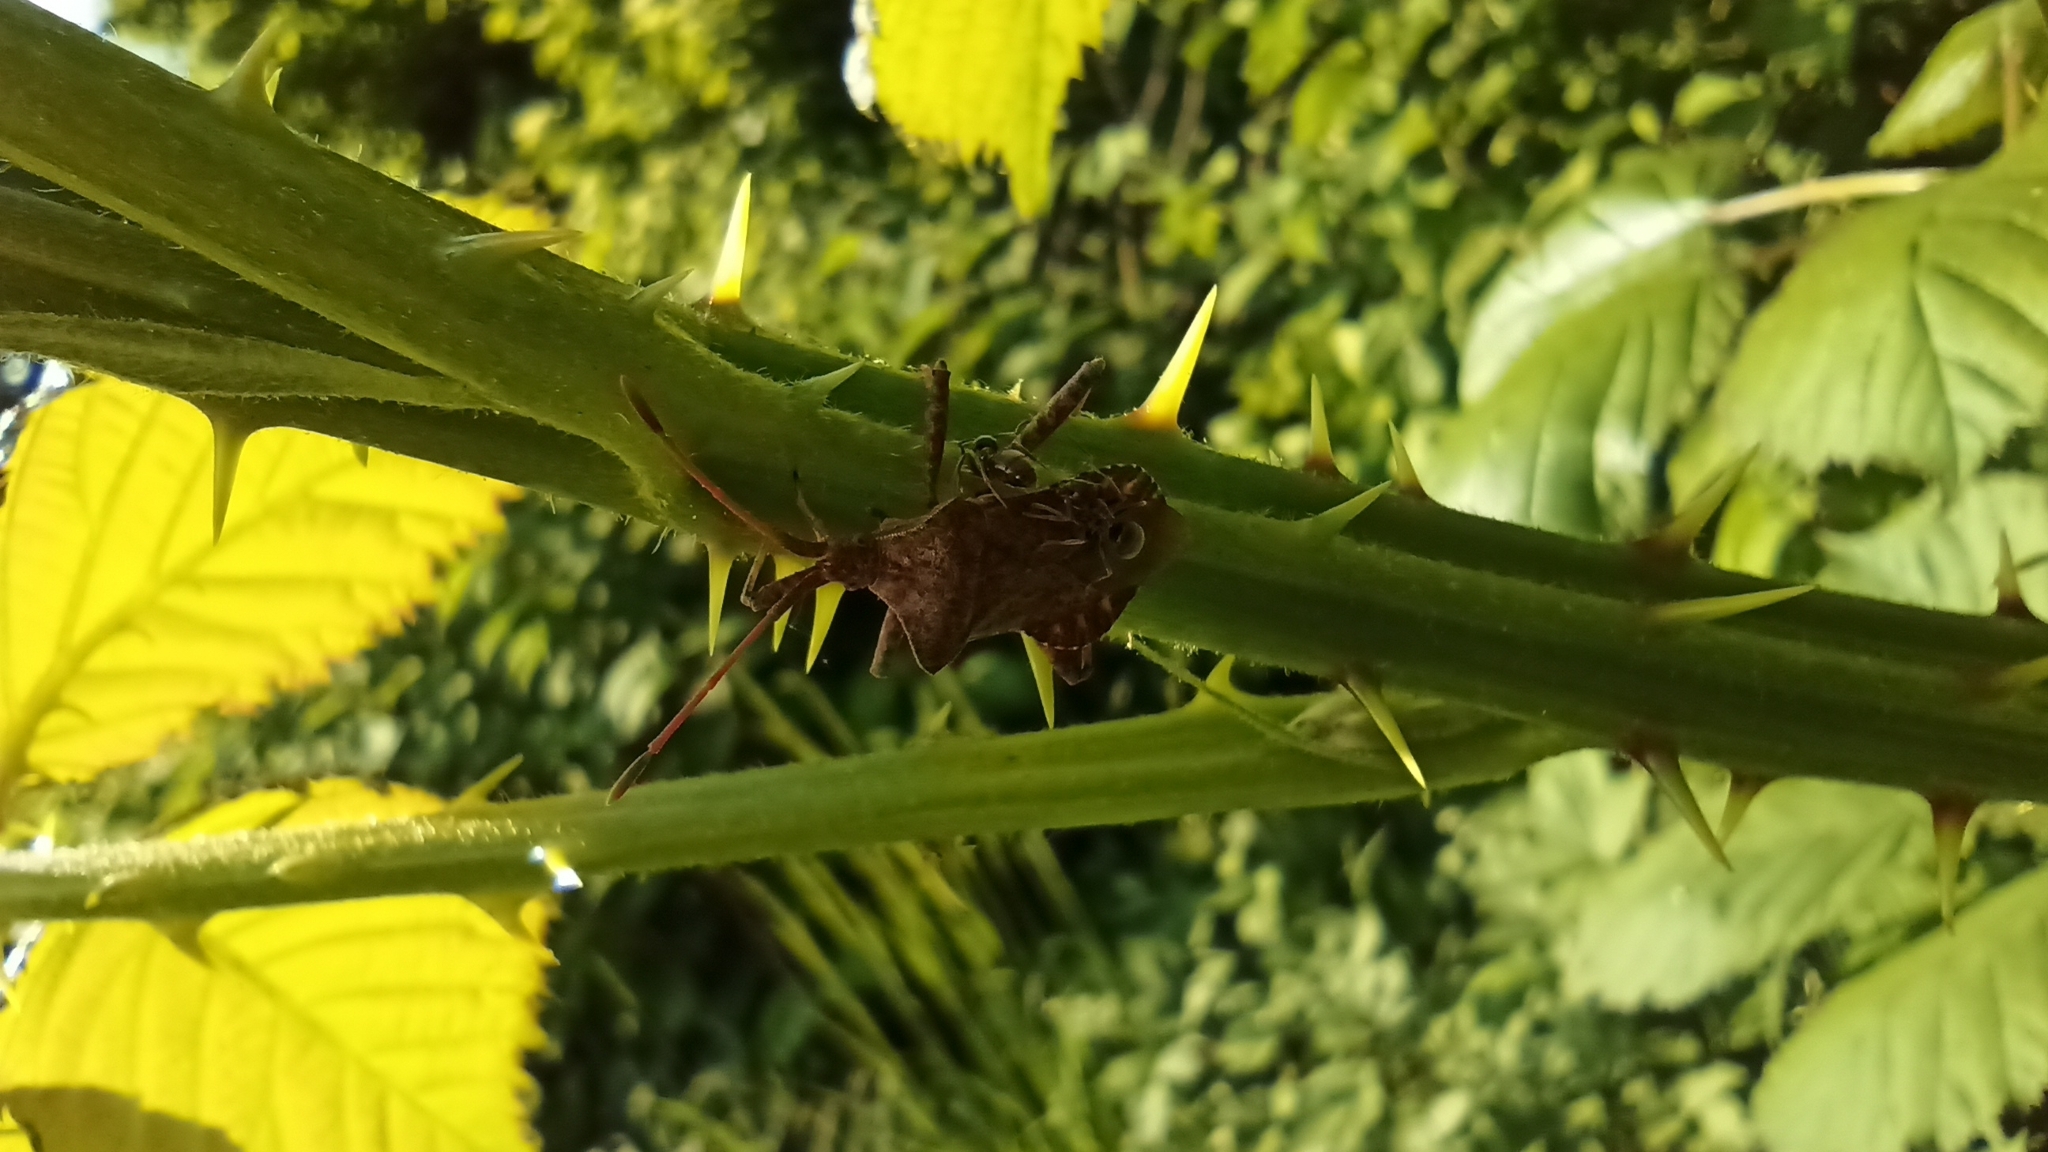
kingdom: Animalia
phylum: Arthropoda
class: Insecta
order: Hemiptera
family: Coreidae
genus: Coreus
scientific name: Coreus marginatus
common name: Dock bug
